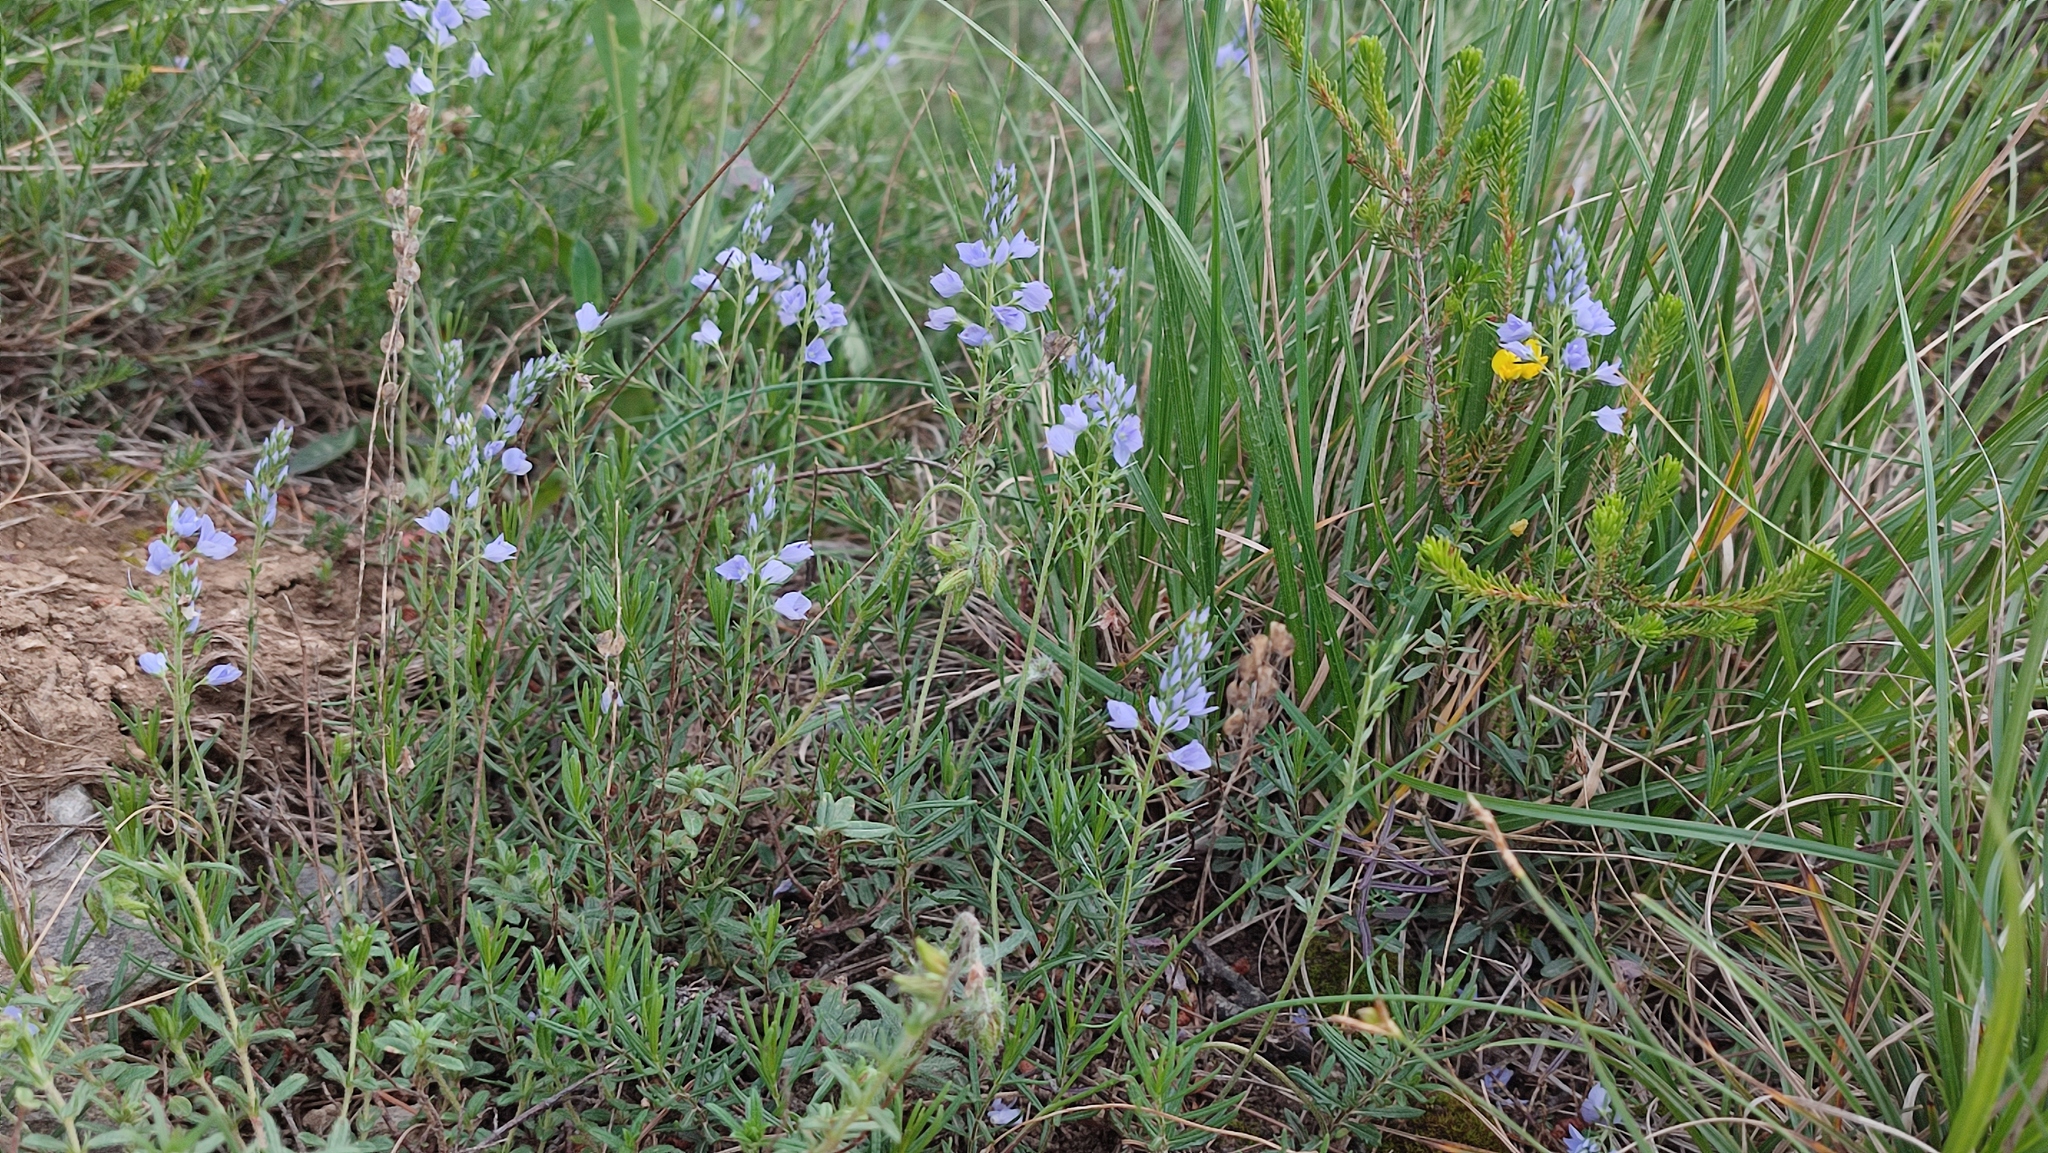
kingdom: Plantae
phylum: Tracheophyta
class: Magnoliopsida
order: Lamiales
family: Plantaginaceae
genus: Veronica
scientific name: Veronica orbiculata
